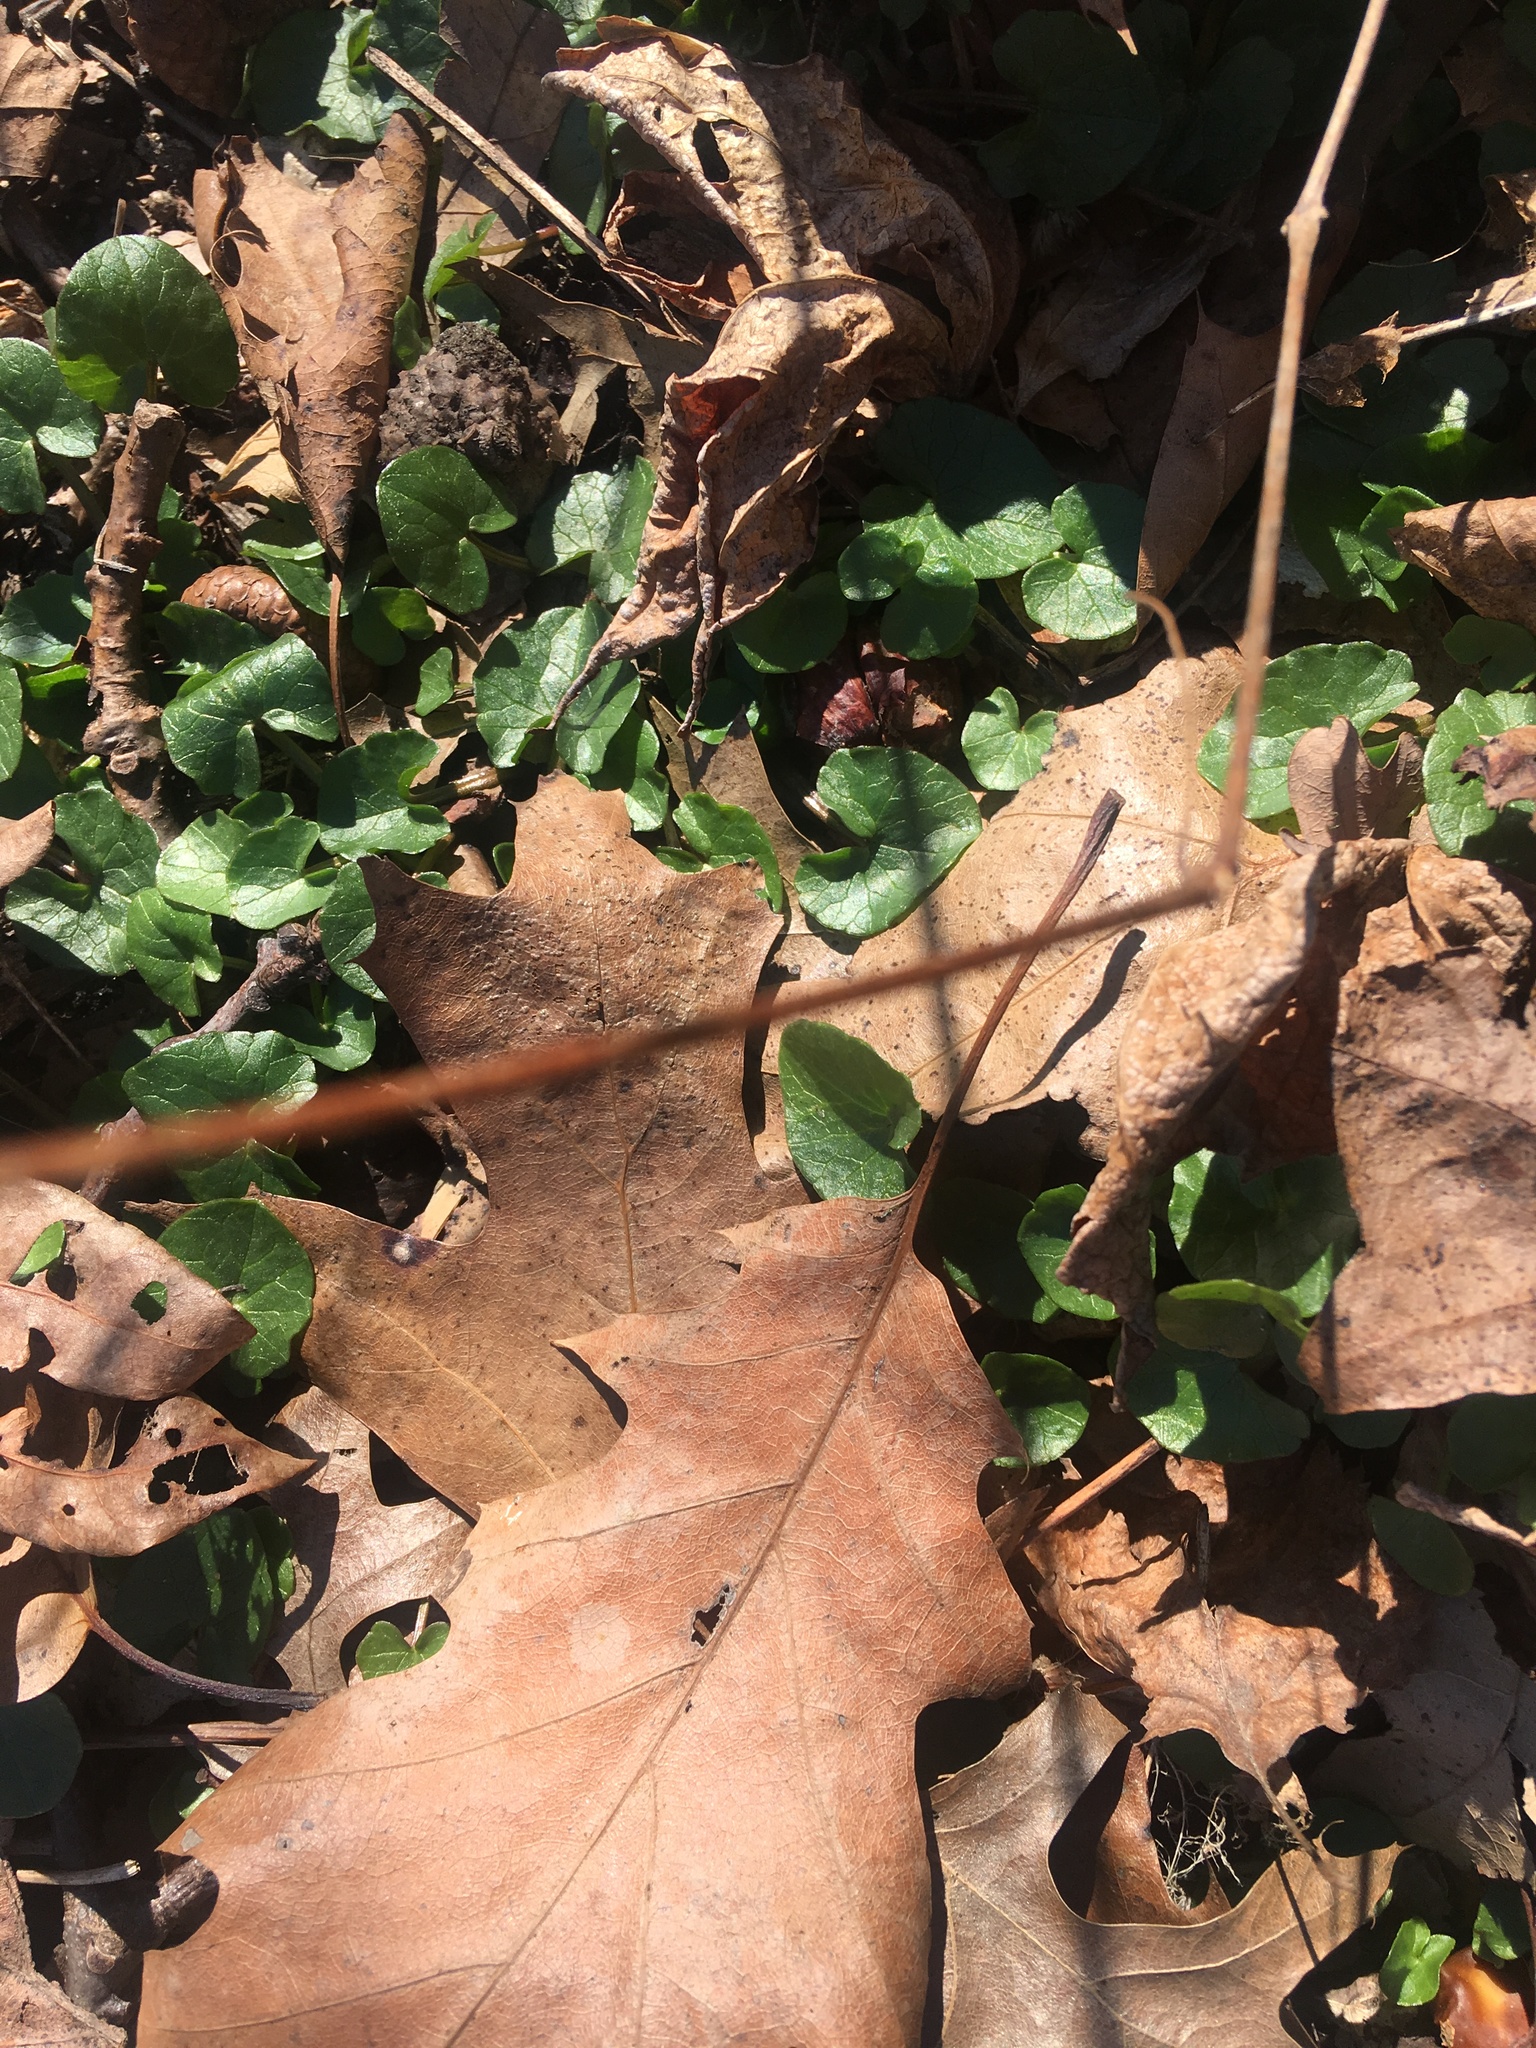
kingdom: Plantae
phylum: Tracheophyta
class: Magnoliopsida
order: Ranunculales
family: Ranunculaceae
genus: Ficaria
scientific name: Ficaria verna
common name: Lesser celandine
